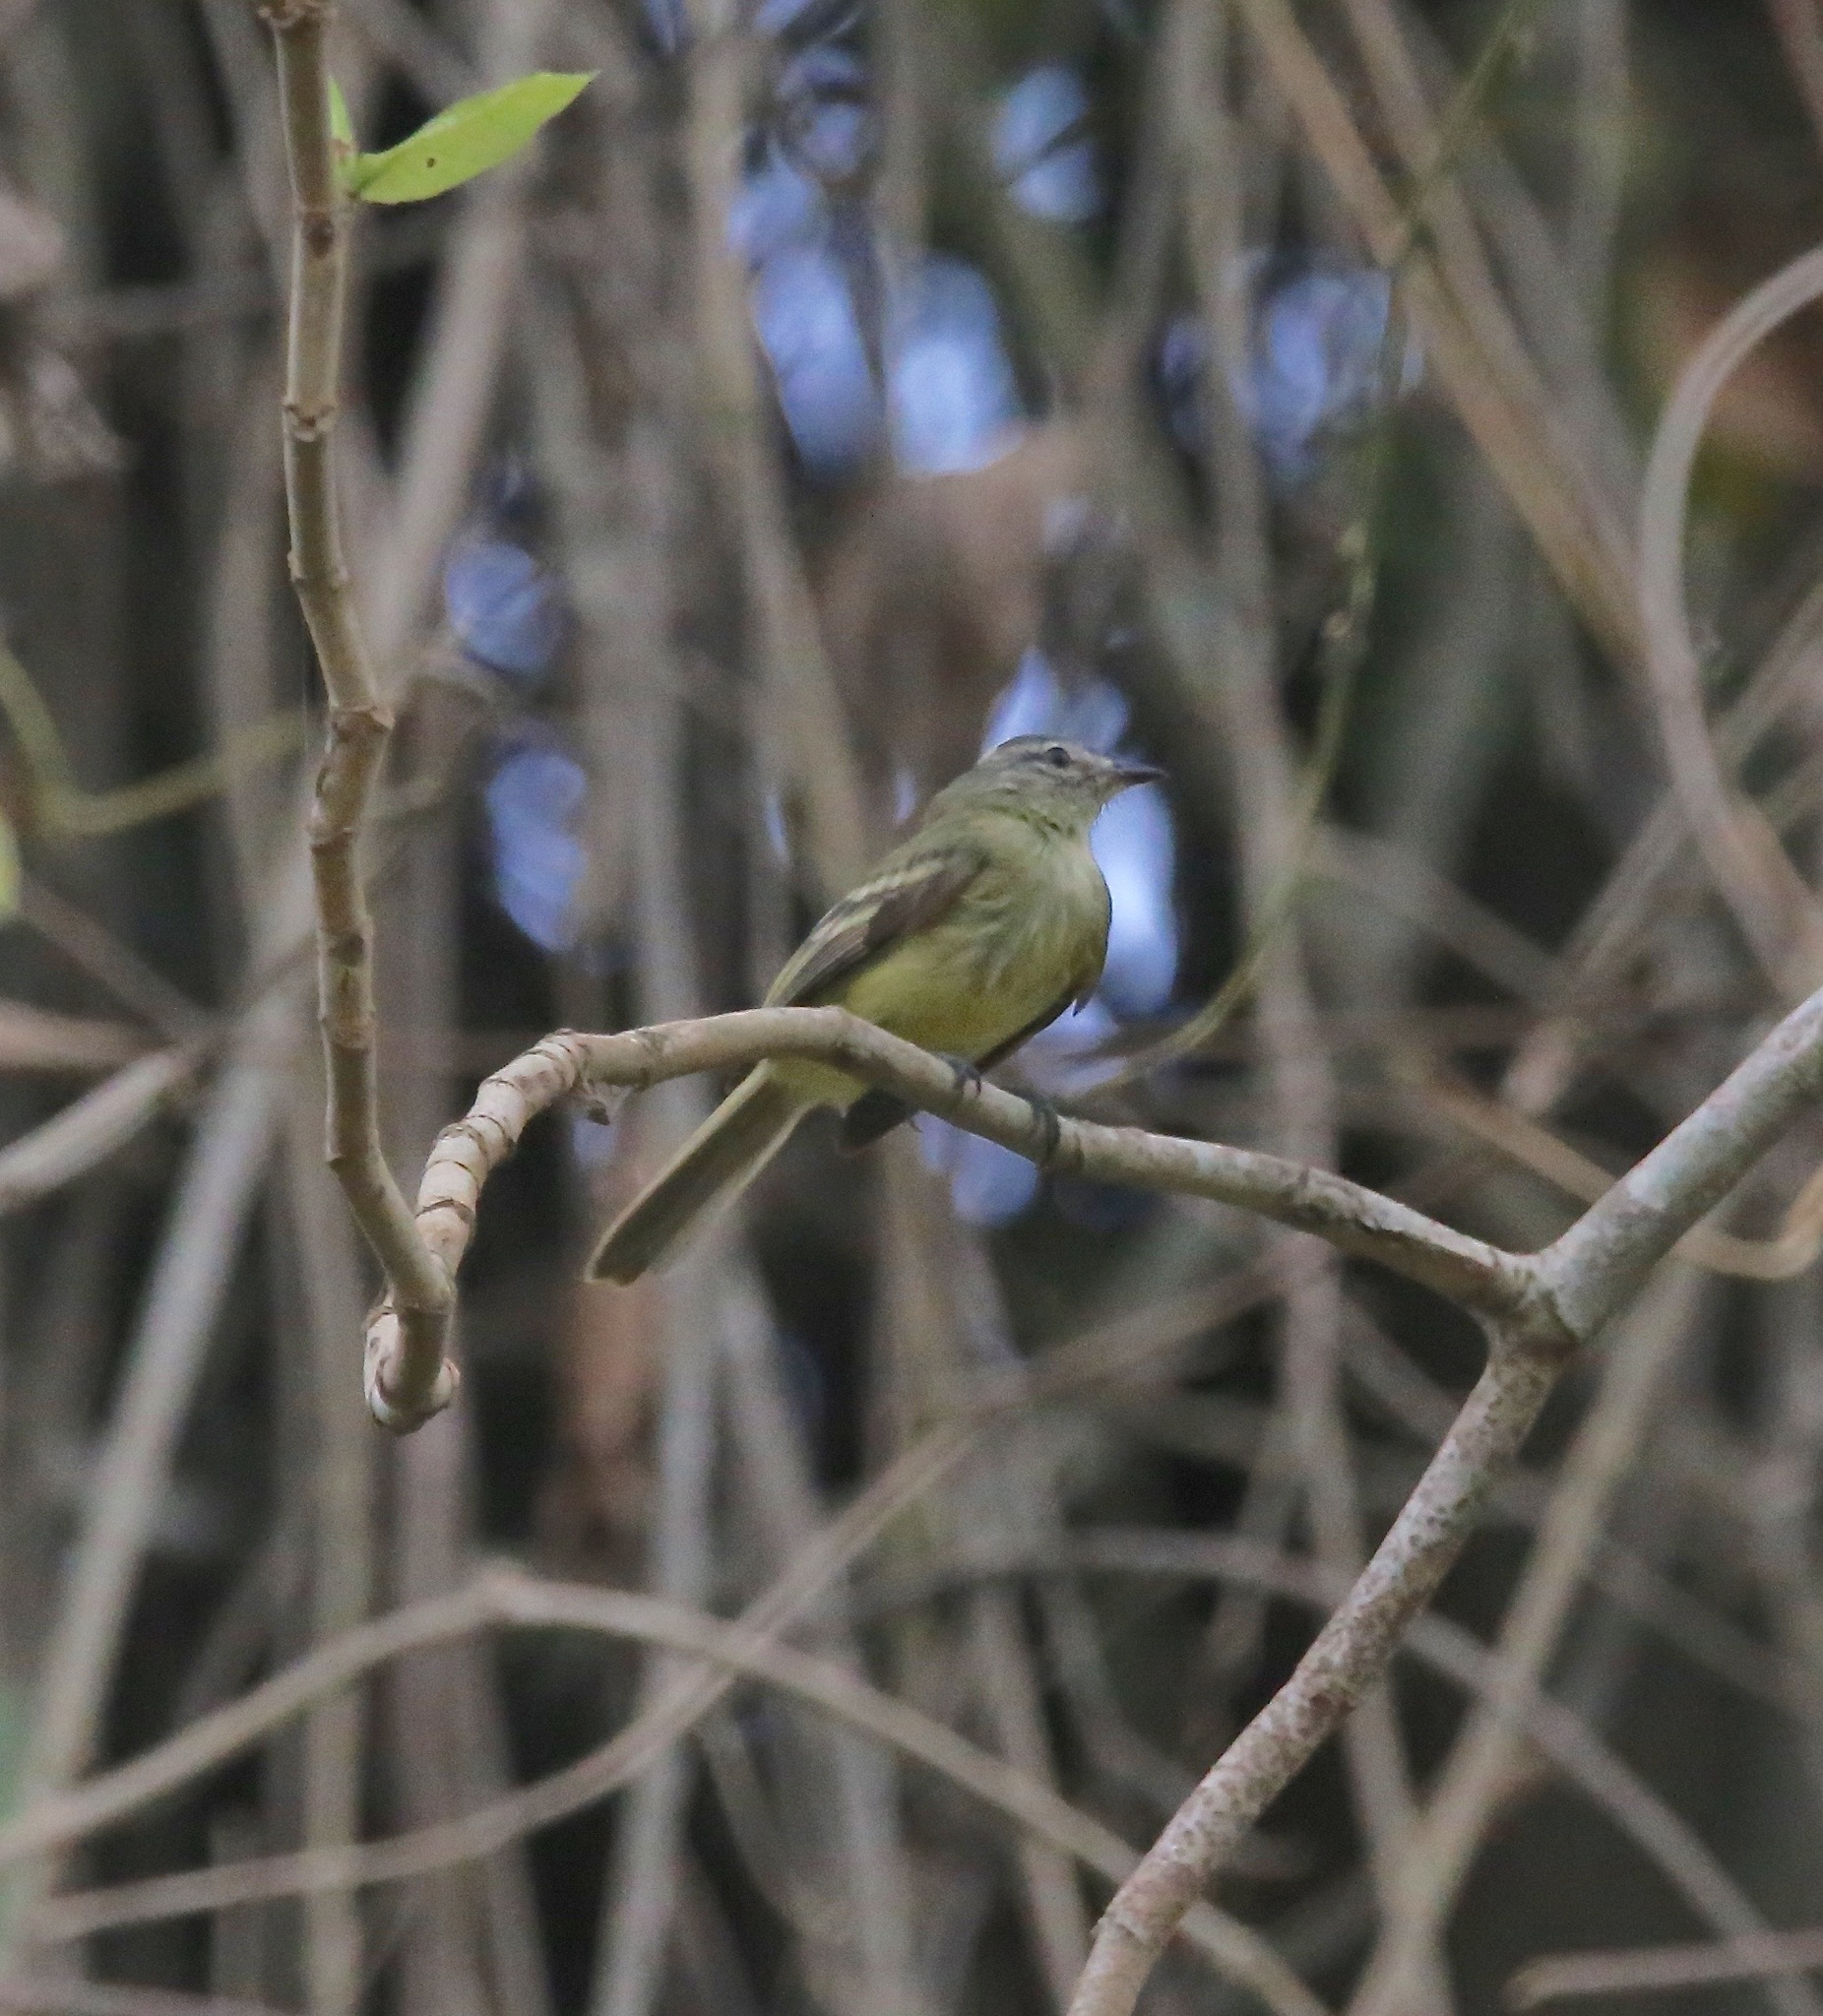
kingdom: Animalia
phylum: Chordata
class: Aves
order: Passeriformes
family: Tyrannidae
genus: Myiopagis
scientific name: Myiopagis gaimardii
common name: Forest elaenia
